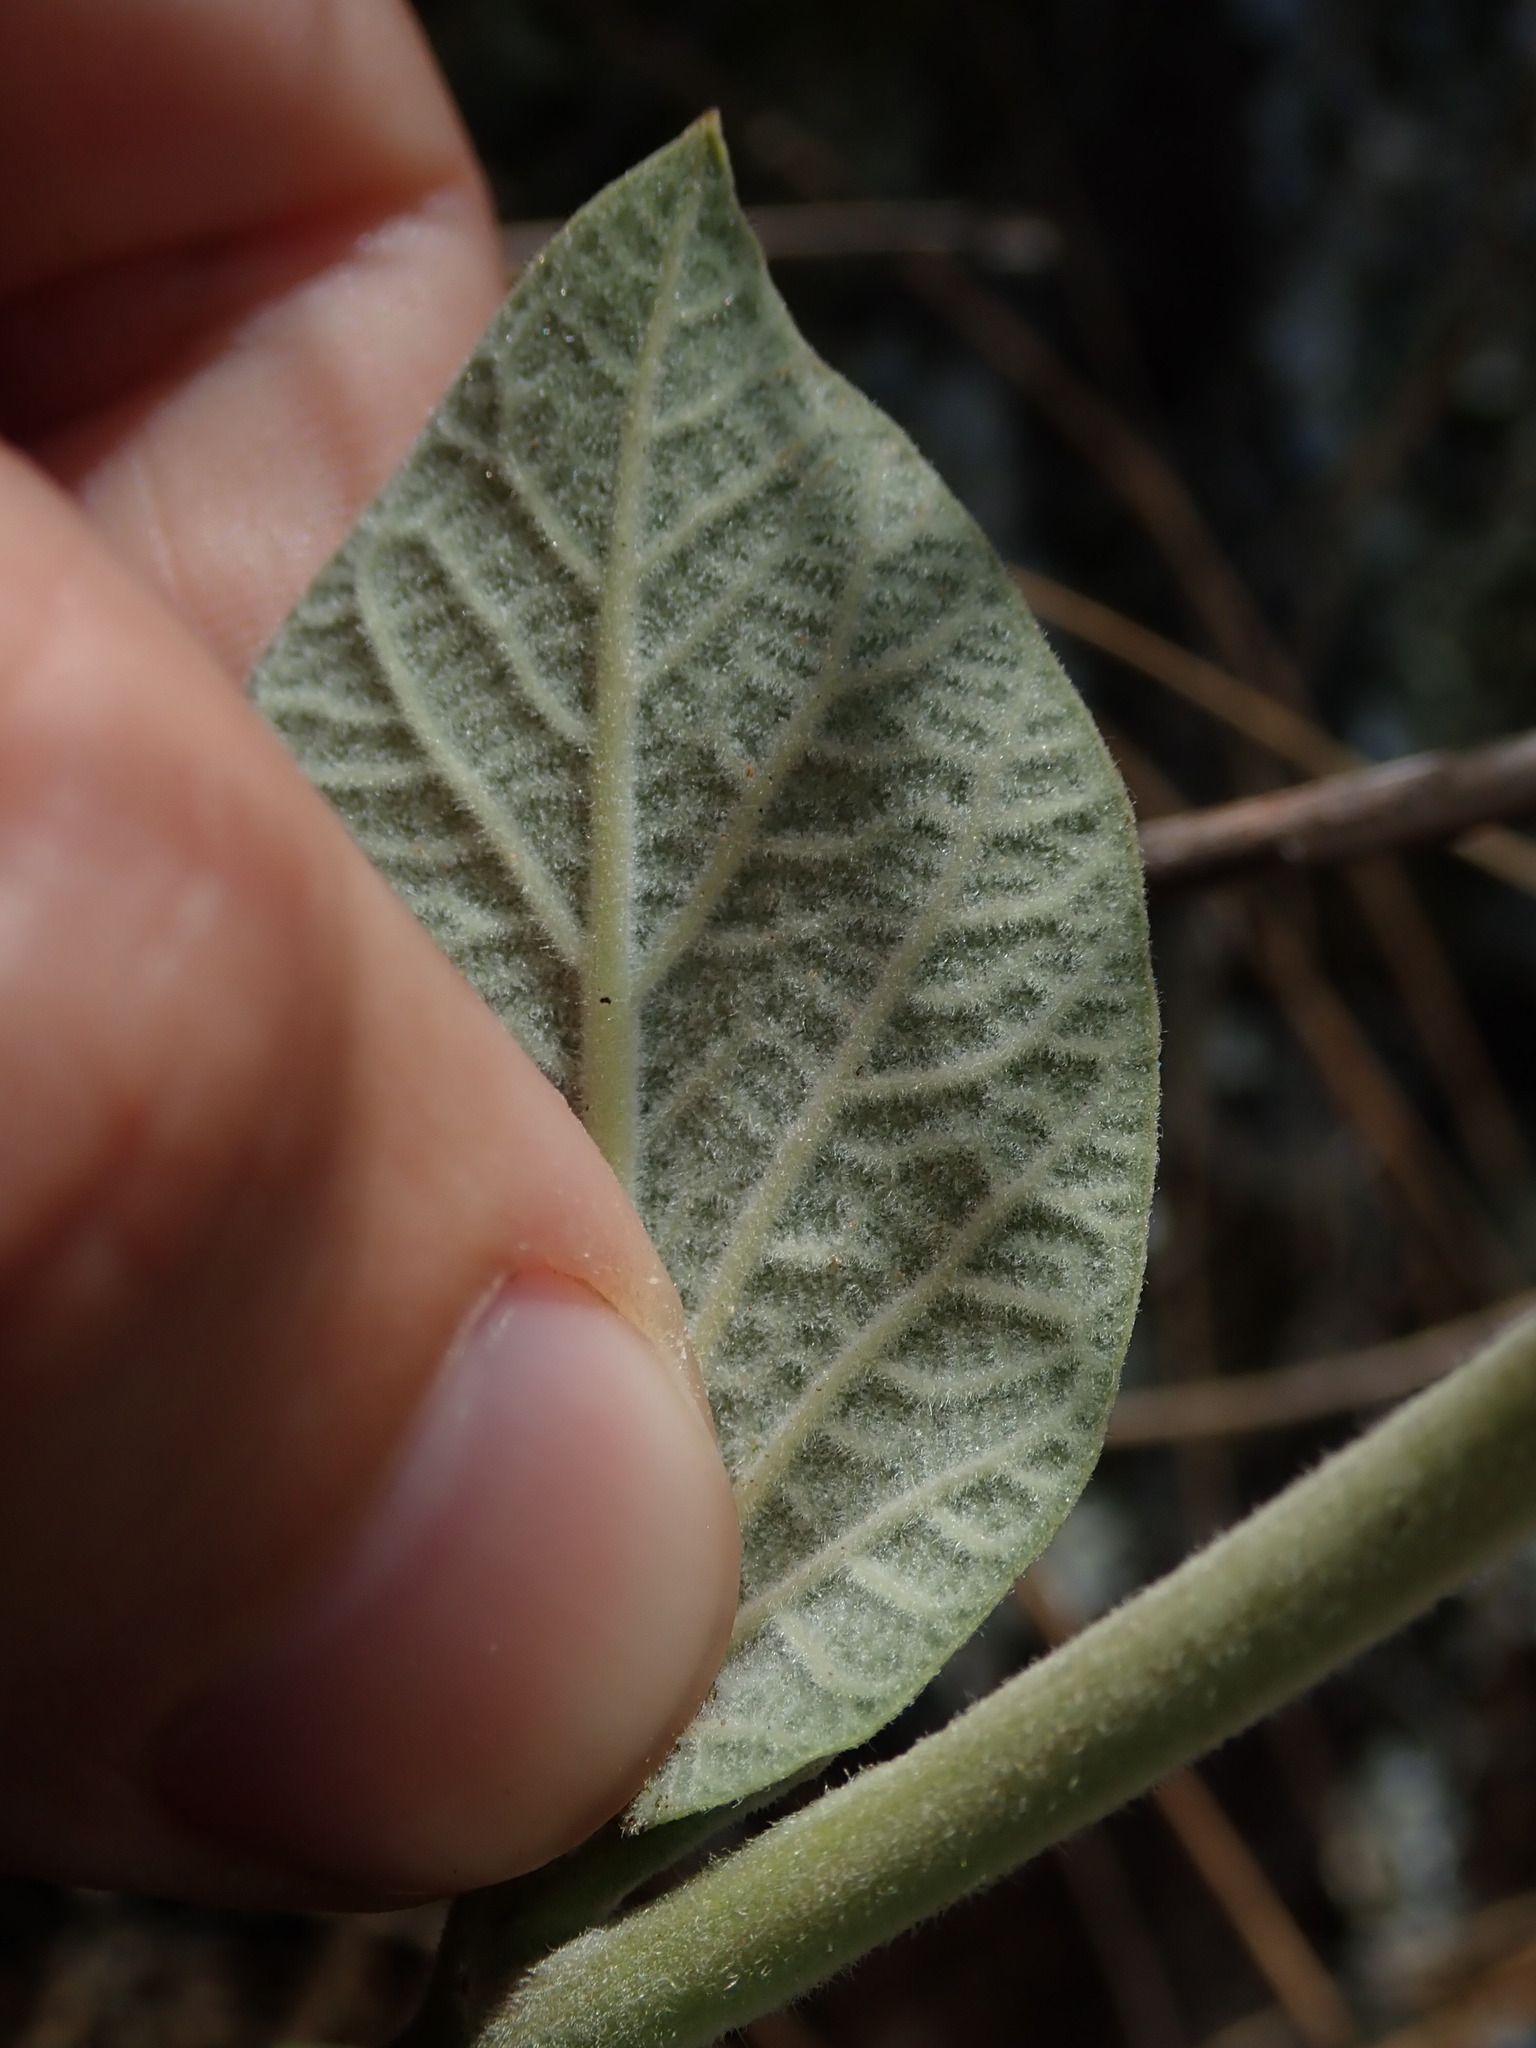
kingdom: Plantae
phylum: Tracheophyta
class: Magnoliopsida
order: Gentianales
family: Apocynaceae
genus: Mandevilla
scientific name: Mandevilla pentlandiana
